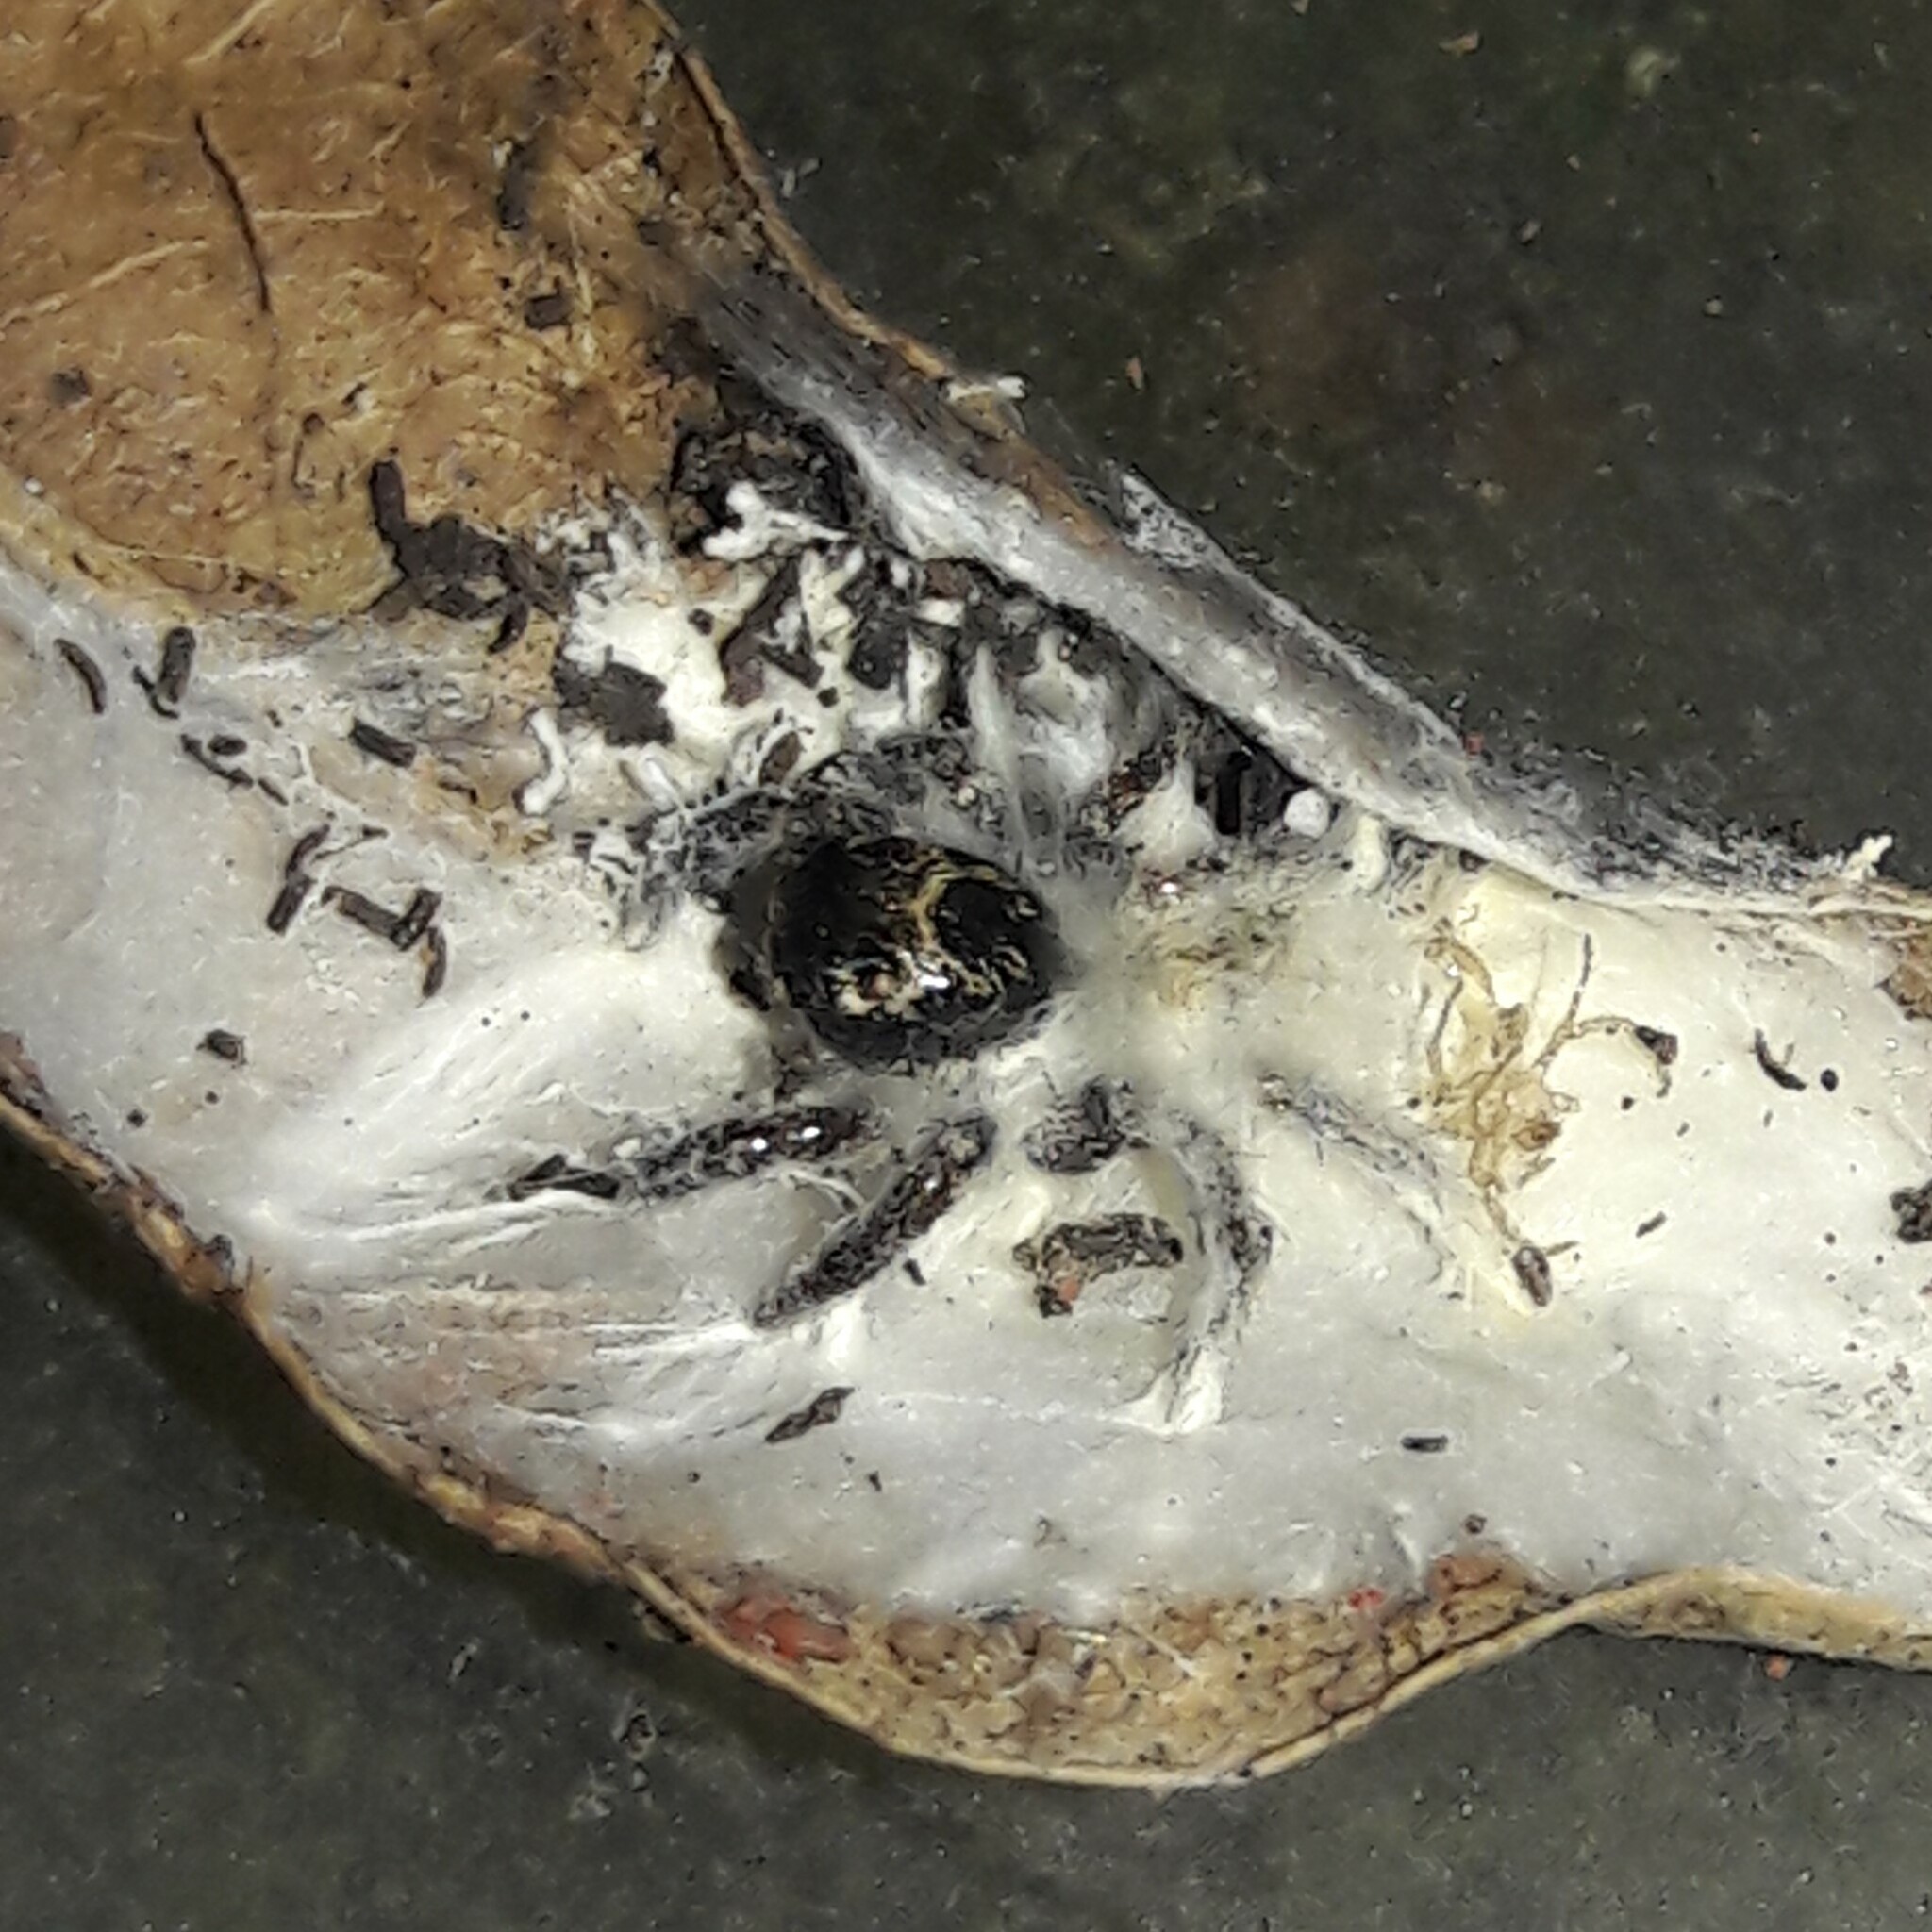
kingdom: Animalia
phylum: Arthropoda
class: Arachnida
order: Araneae
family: Salticidae
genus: Corythalia
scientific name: Corythalia conferta
